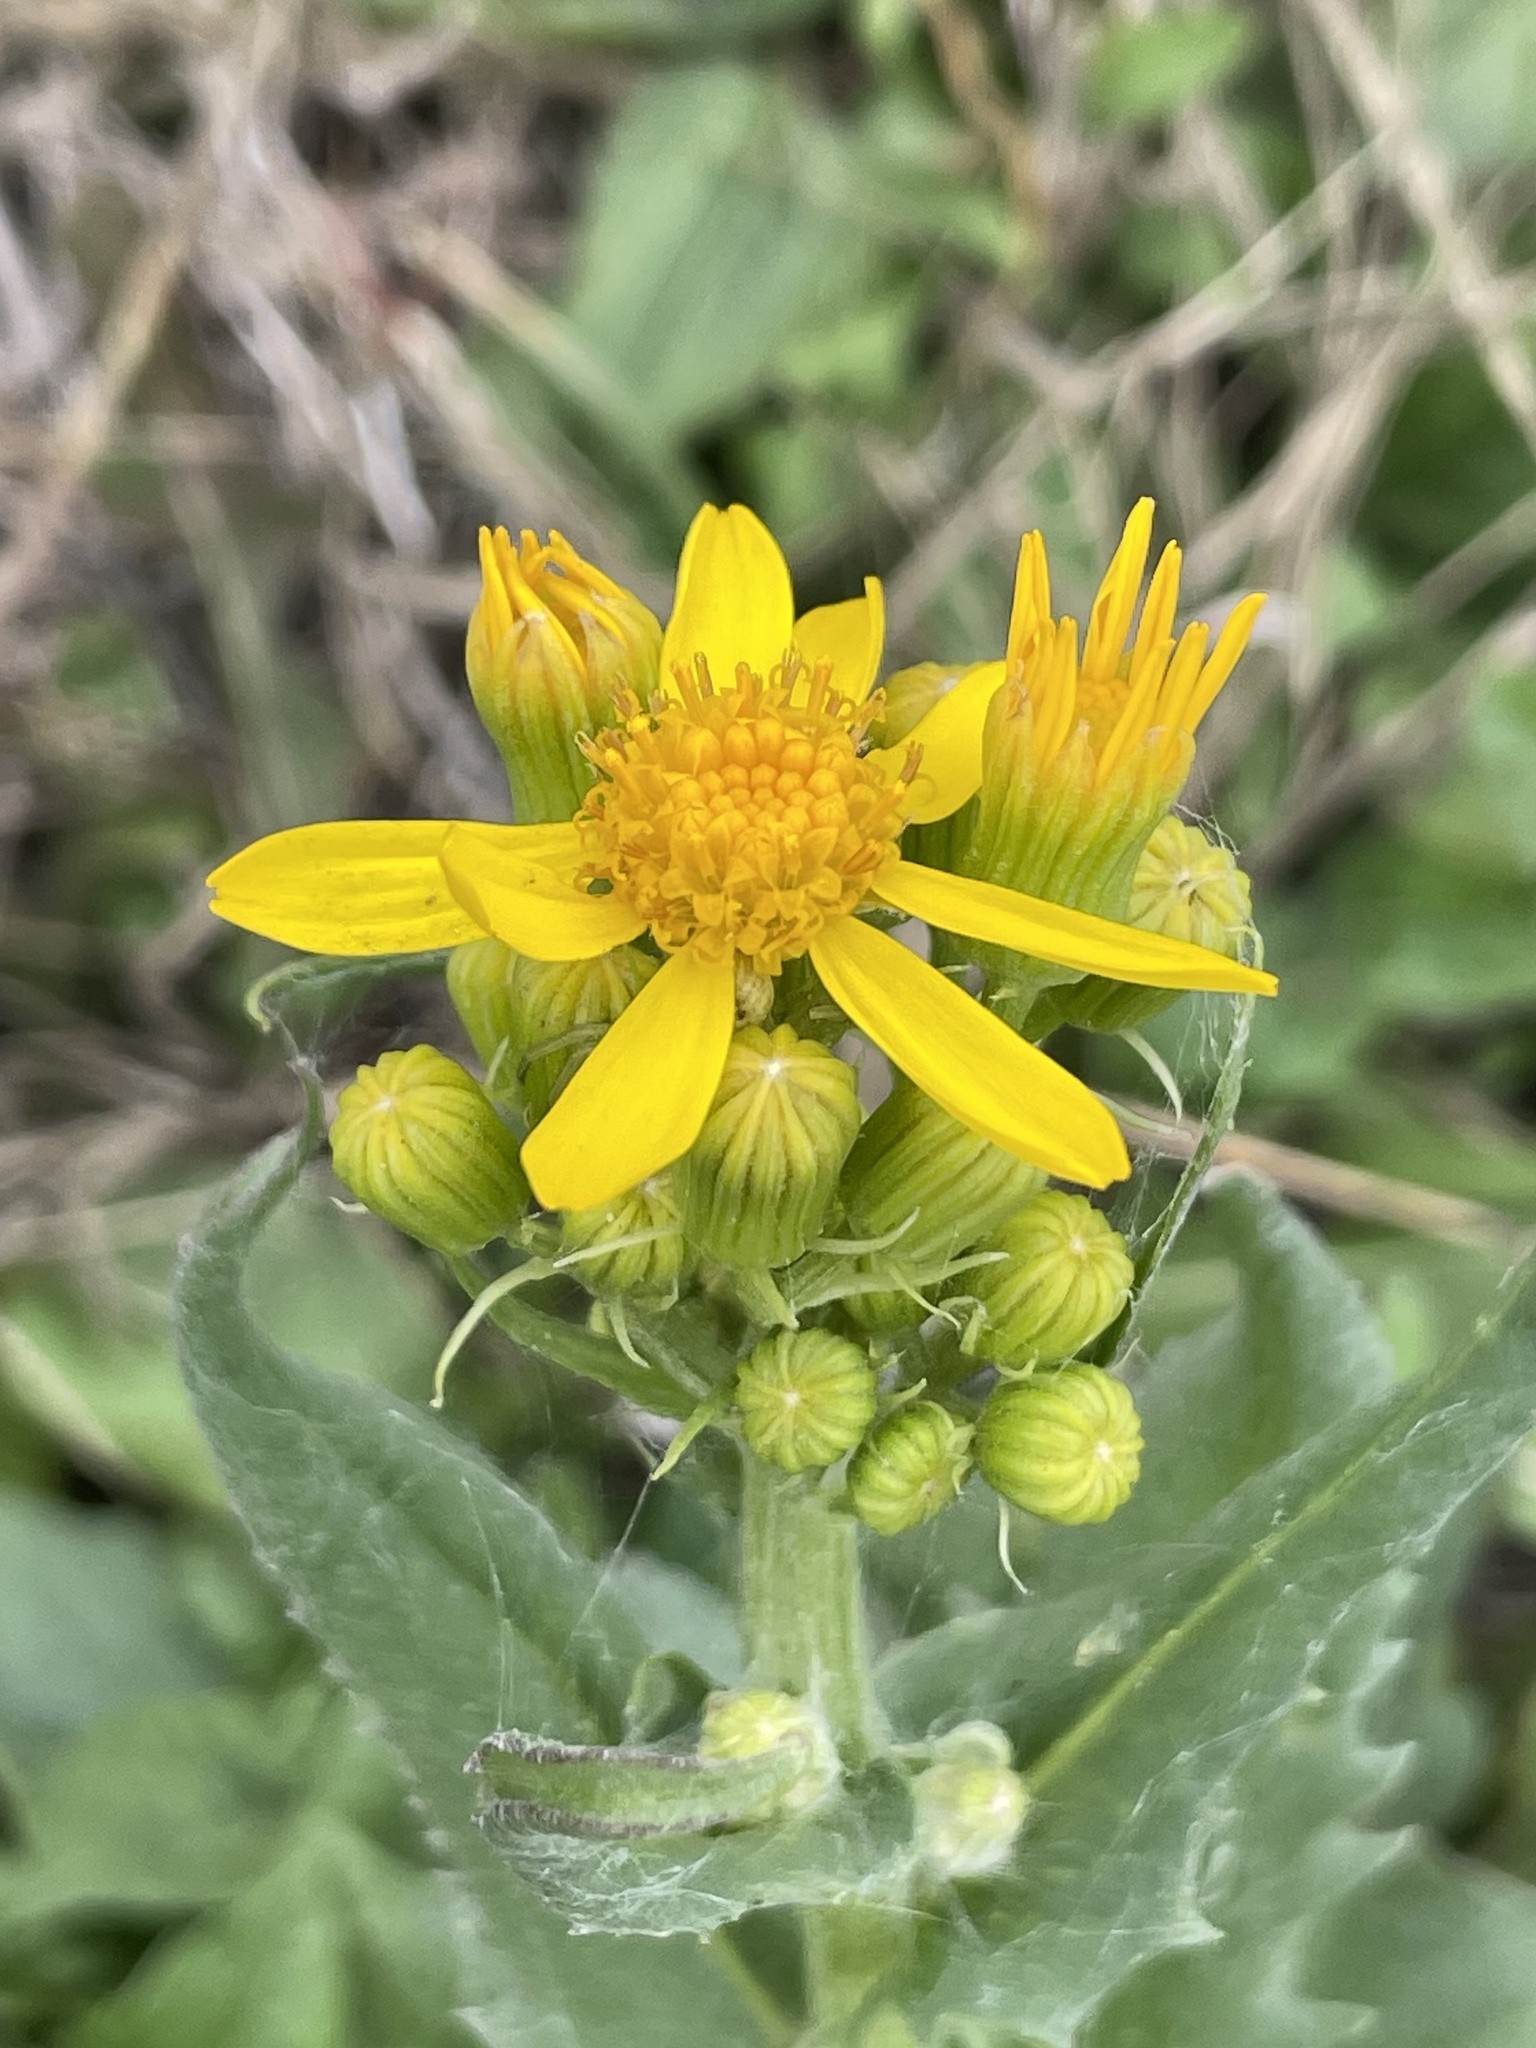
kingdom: Plantae
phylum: Tracheophyta
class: Magnoliopsida
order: Asterales
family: Asteraceae
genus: Senecio
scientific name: Senecio ampullaceus
